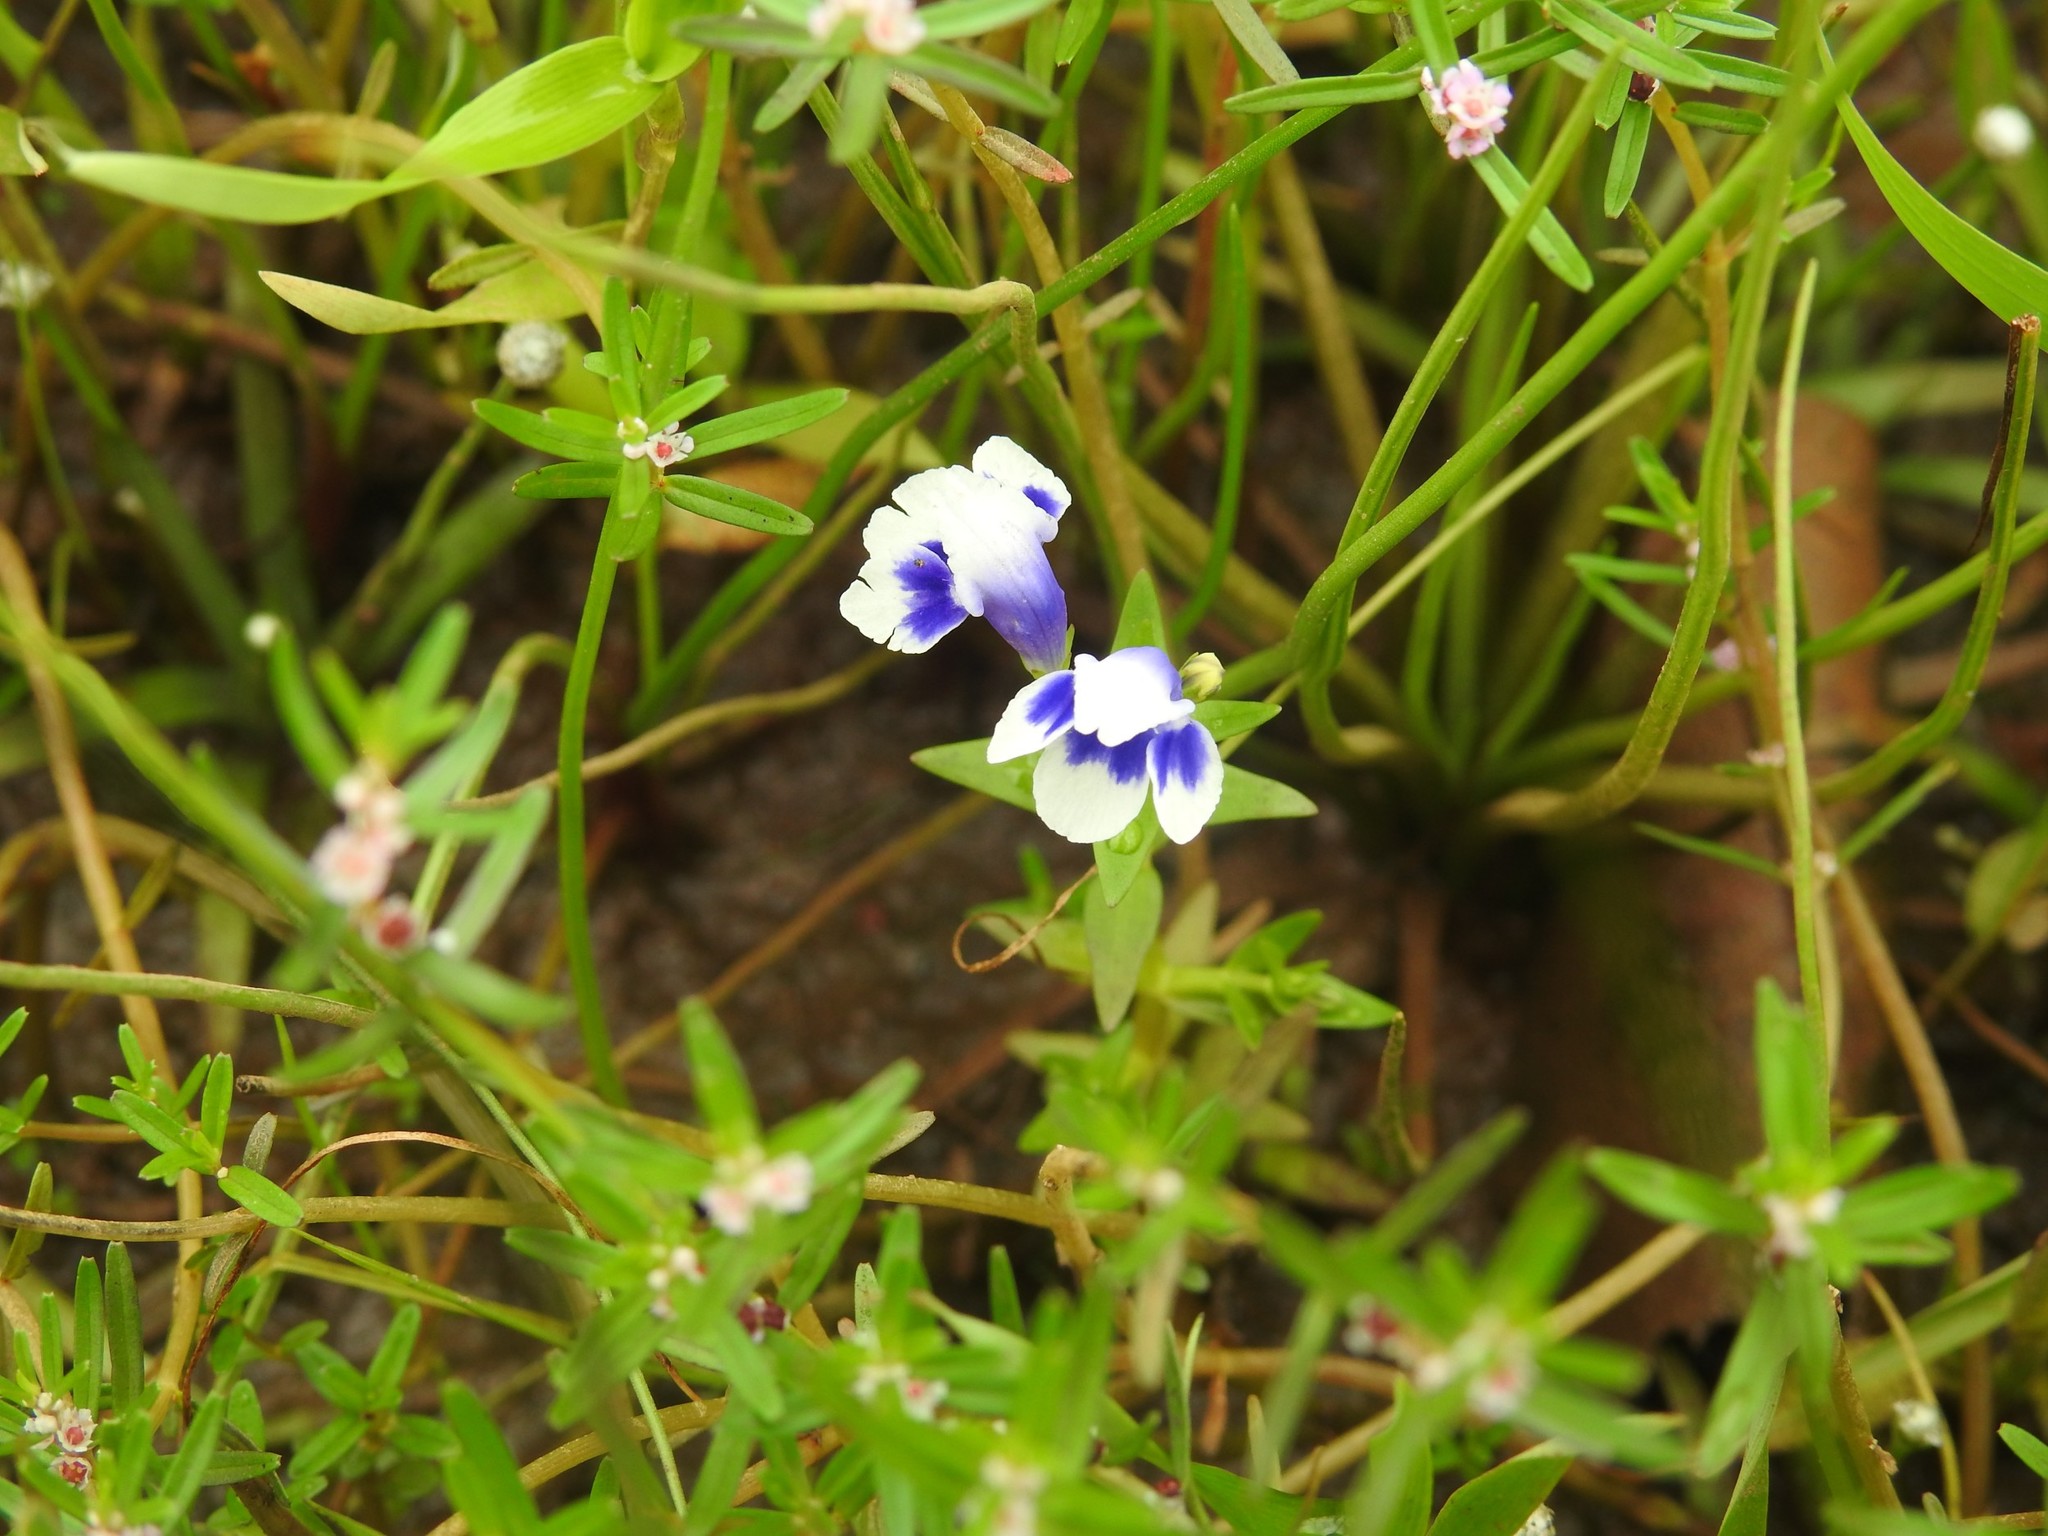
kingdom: Plantae
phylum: Tracheophyta
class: Magnoliopsida
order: Lamiales
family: Linderniaceae
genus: Lindernia
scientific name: Lindernia hyssopioides
